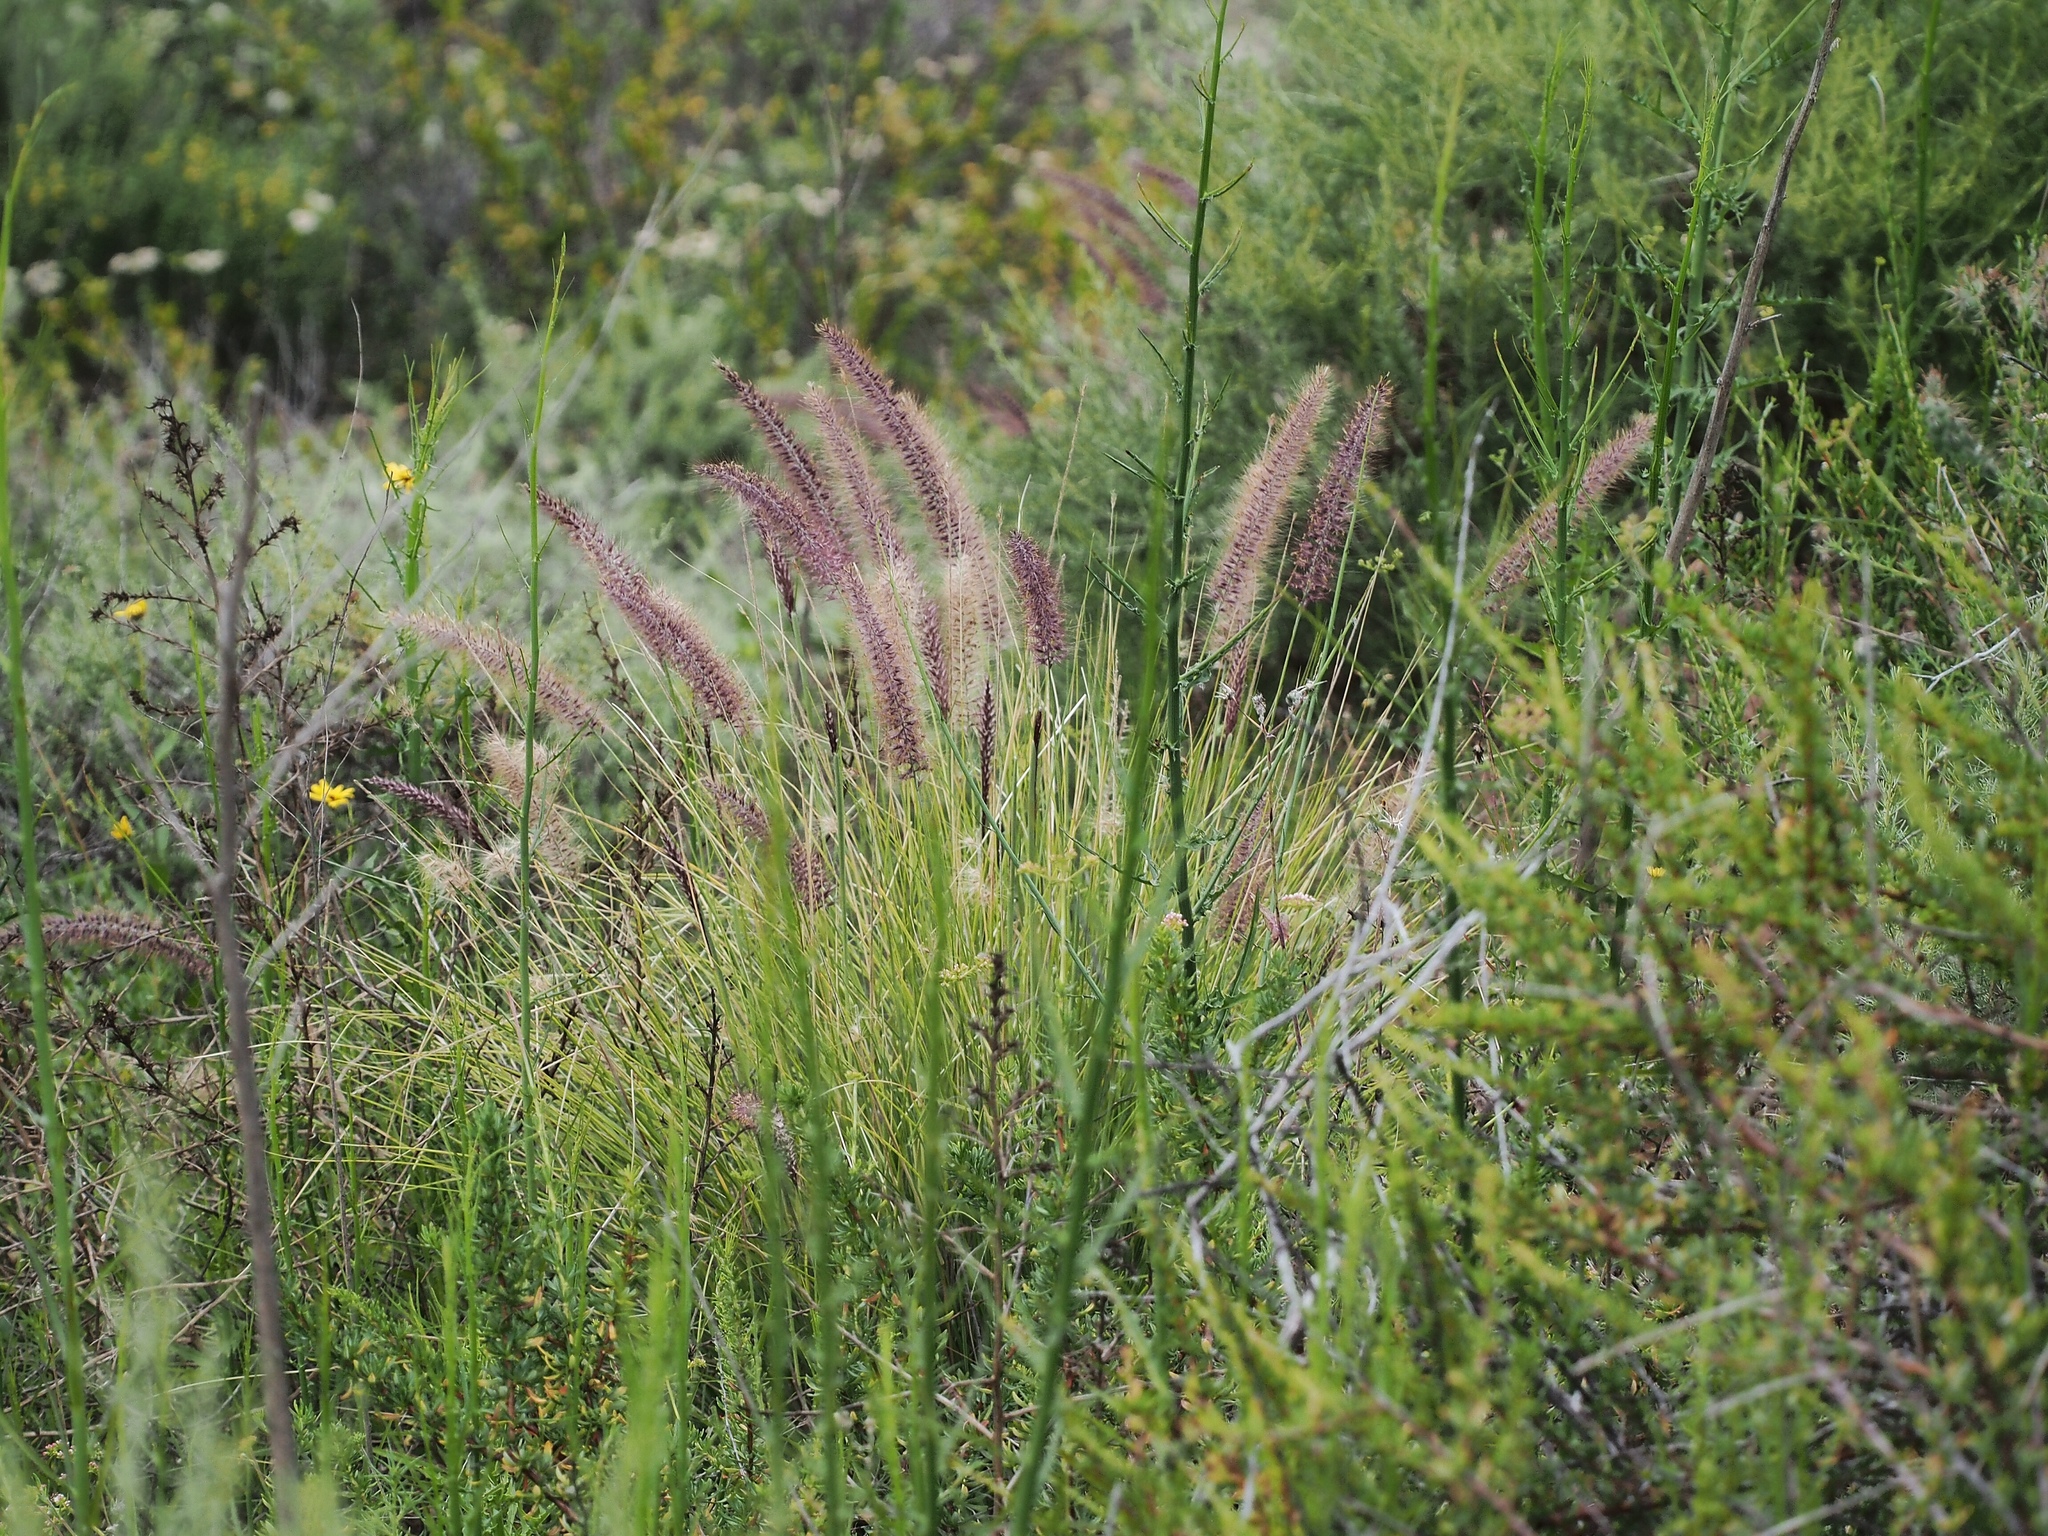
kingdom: Plantae
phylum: Tracheophyta
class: Liliopsida
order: Poales
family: Poaceae
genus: Cenchrus
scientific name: Cenchrus setaceus
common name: Crimson fountaingrass
